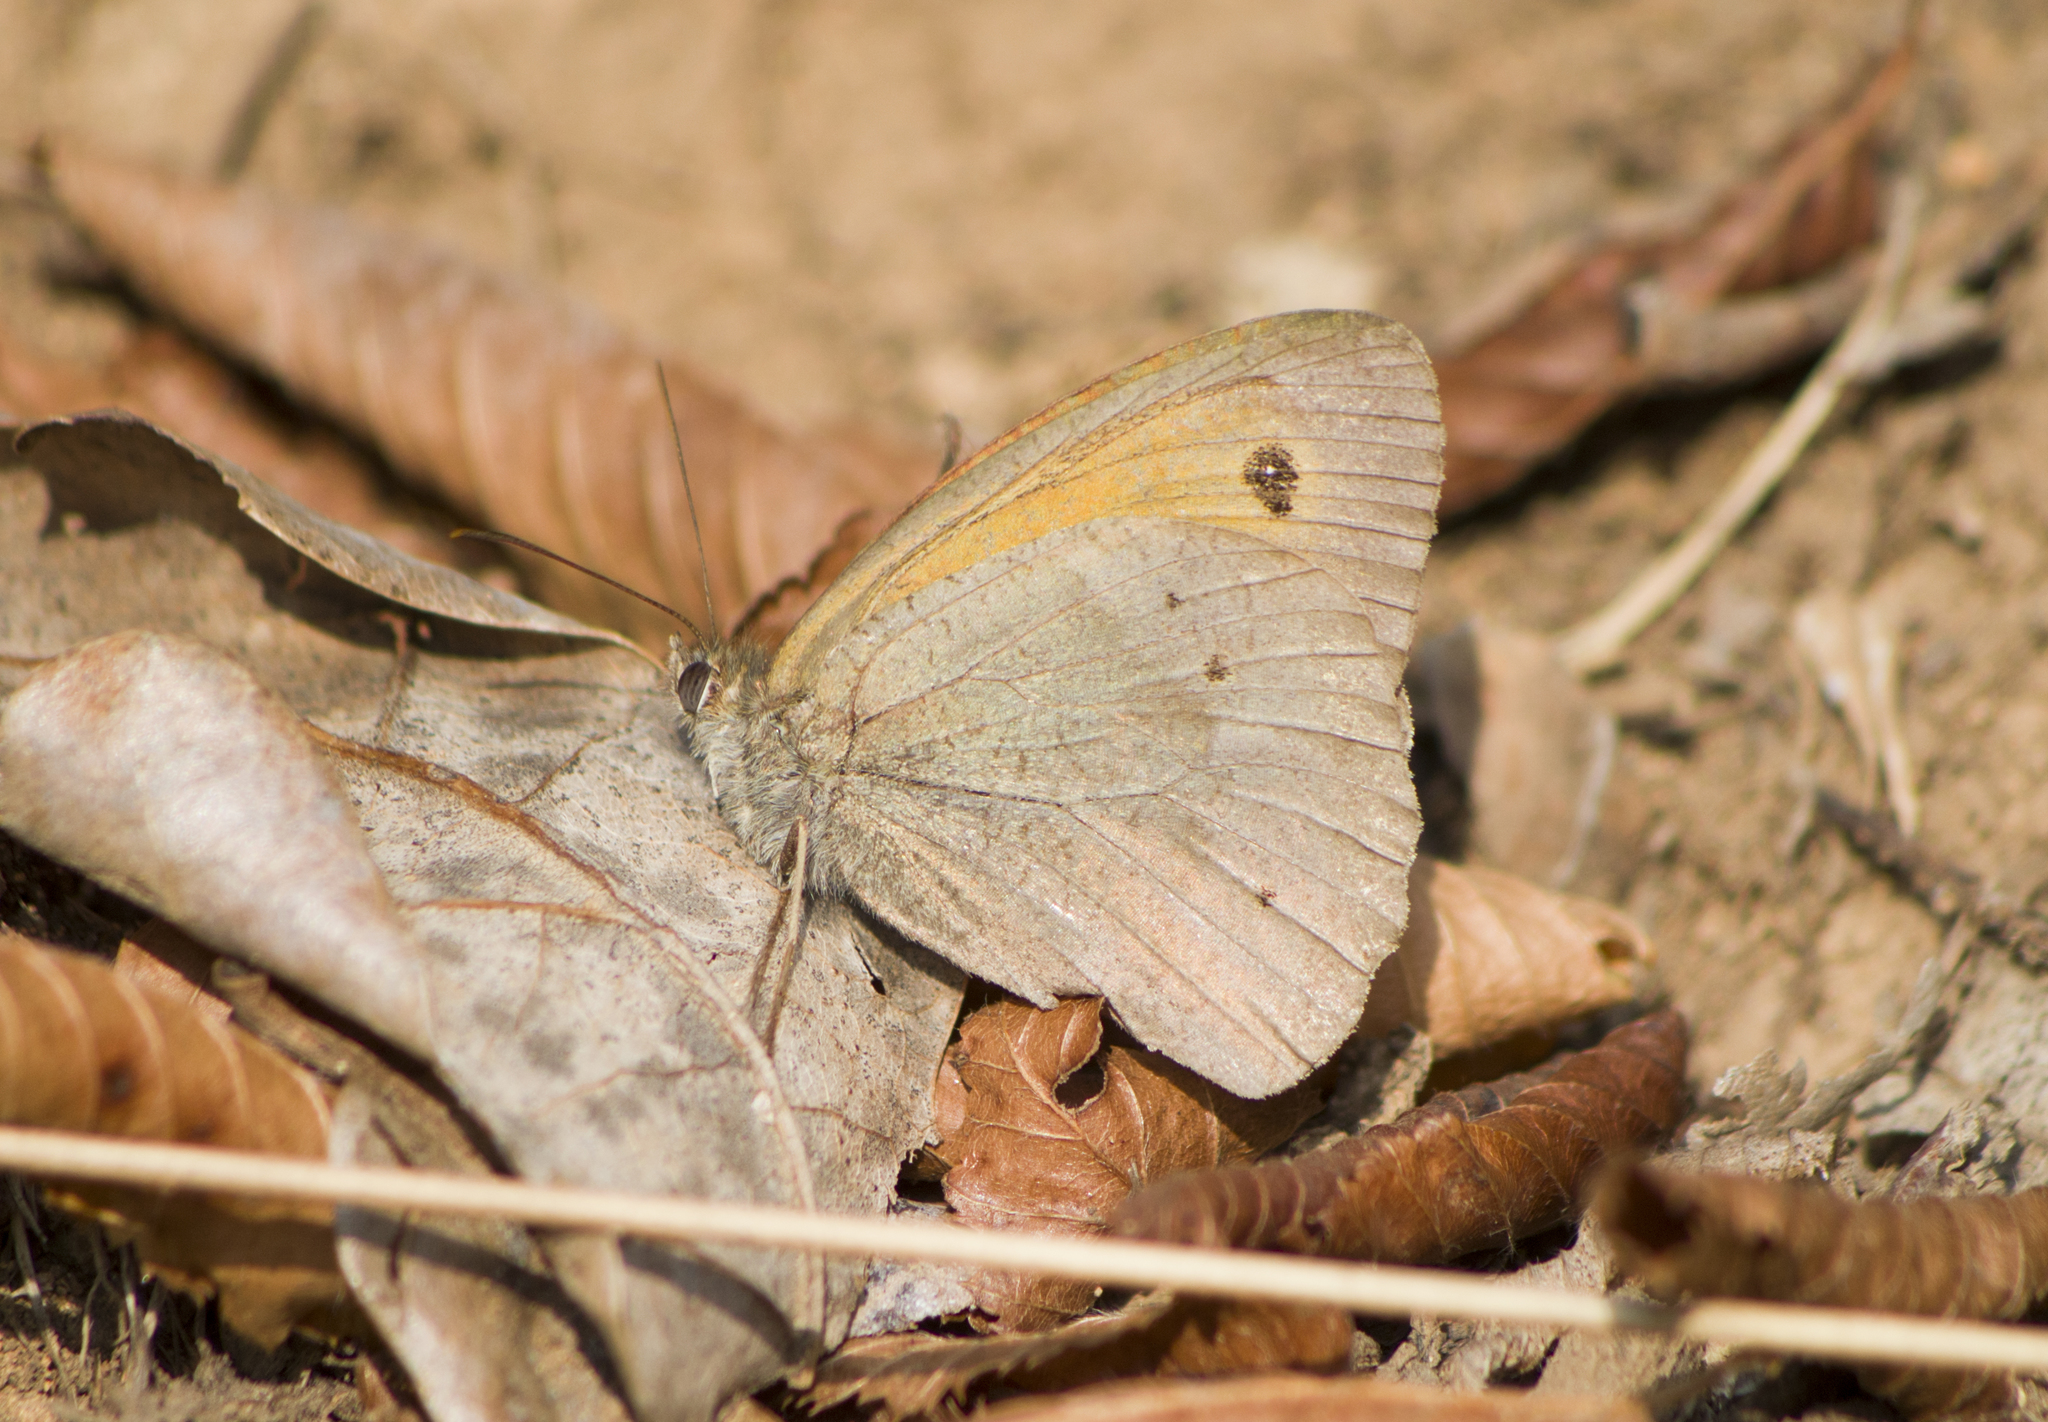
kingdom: Animalia
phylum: Arthropoda
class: Insecta
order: Lepidoptera
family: Nymphalidae
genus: Maniola
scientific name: Maniola jurtina
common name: Meadow brown
